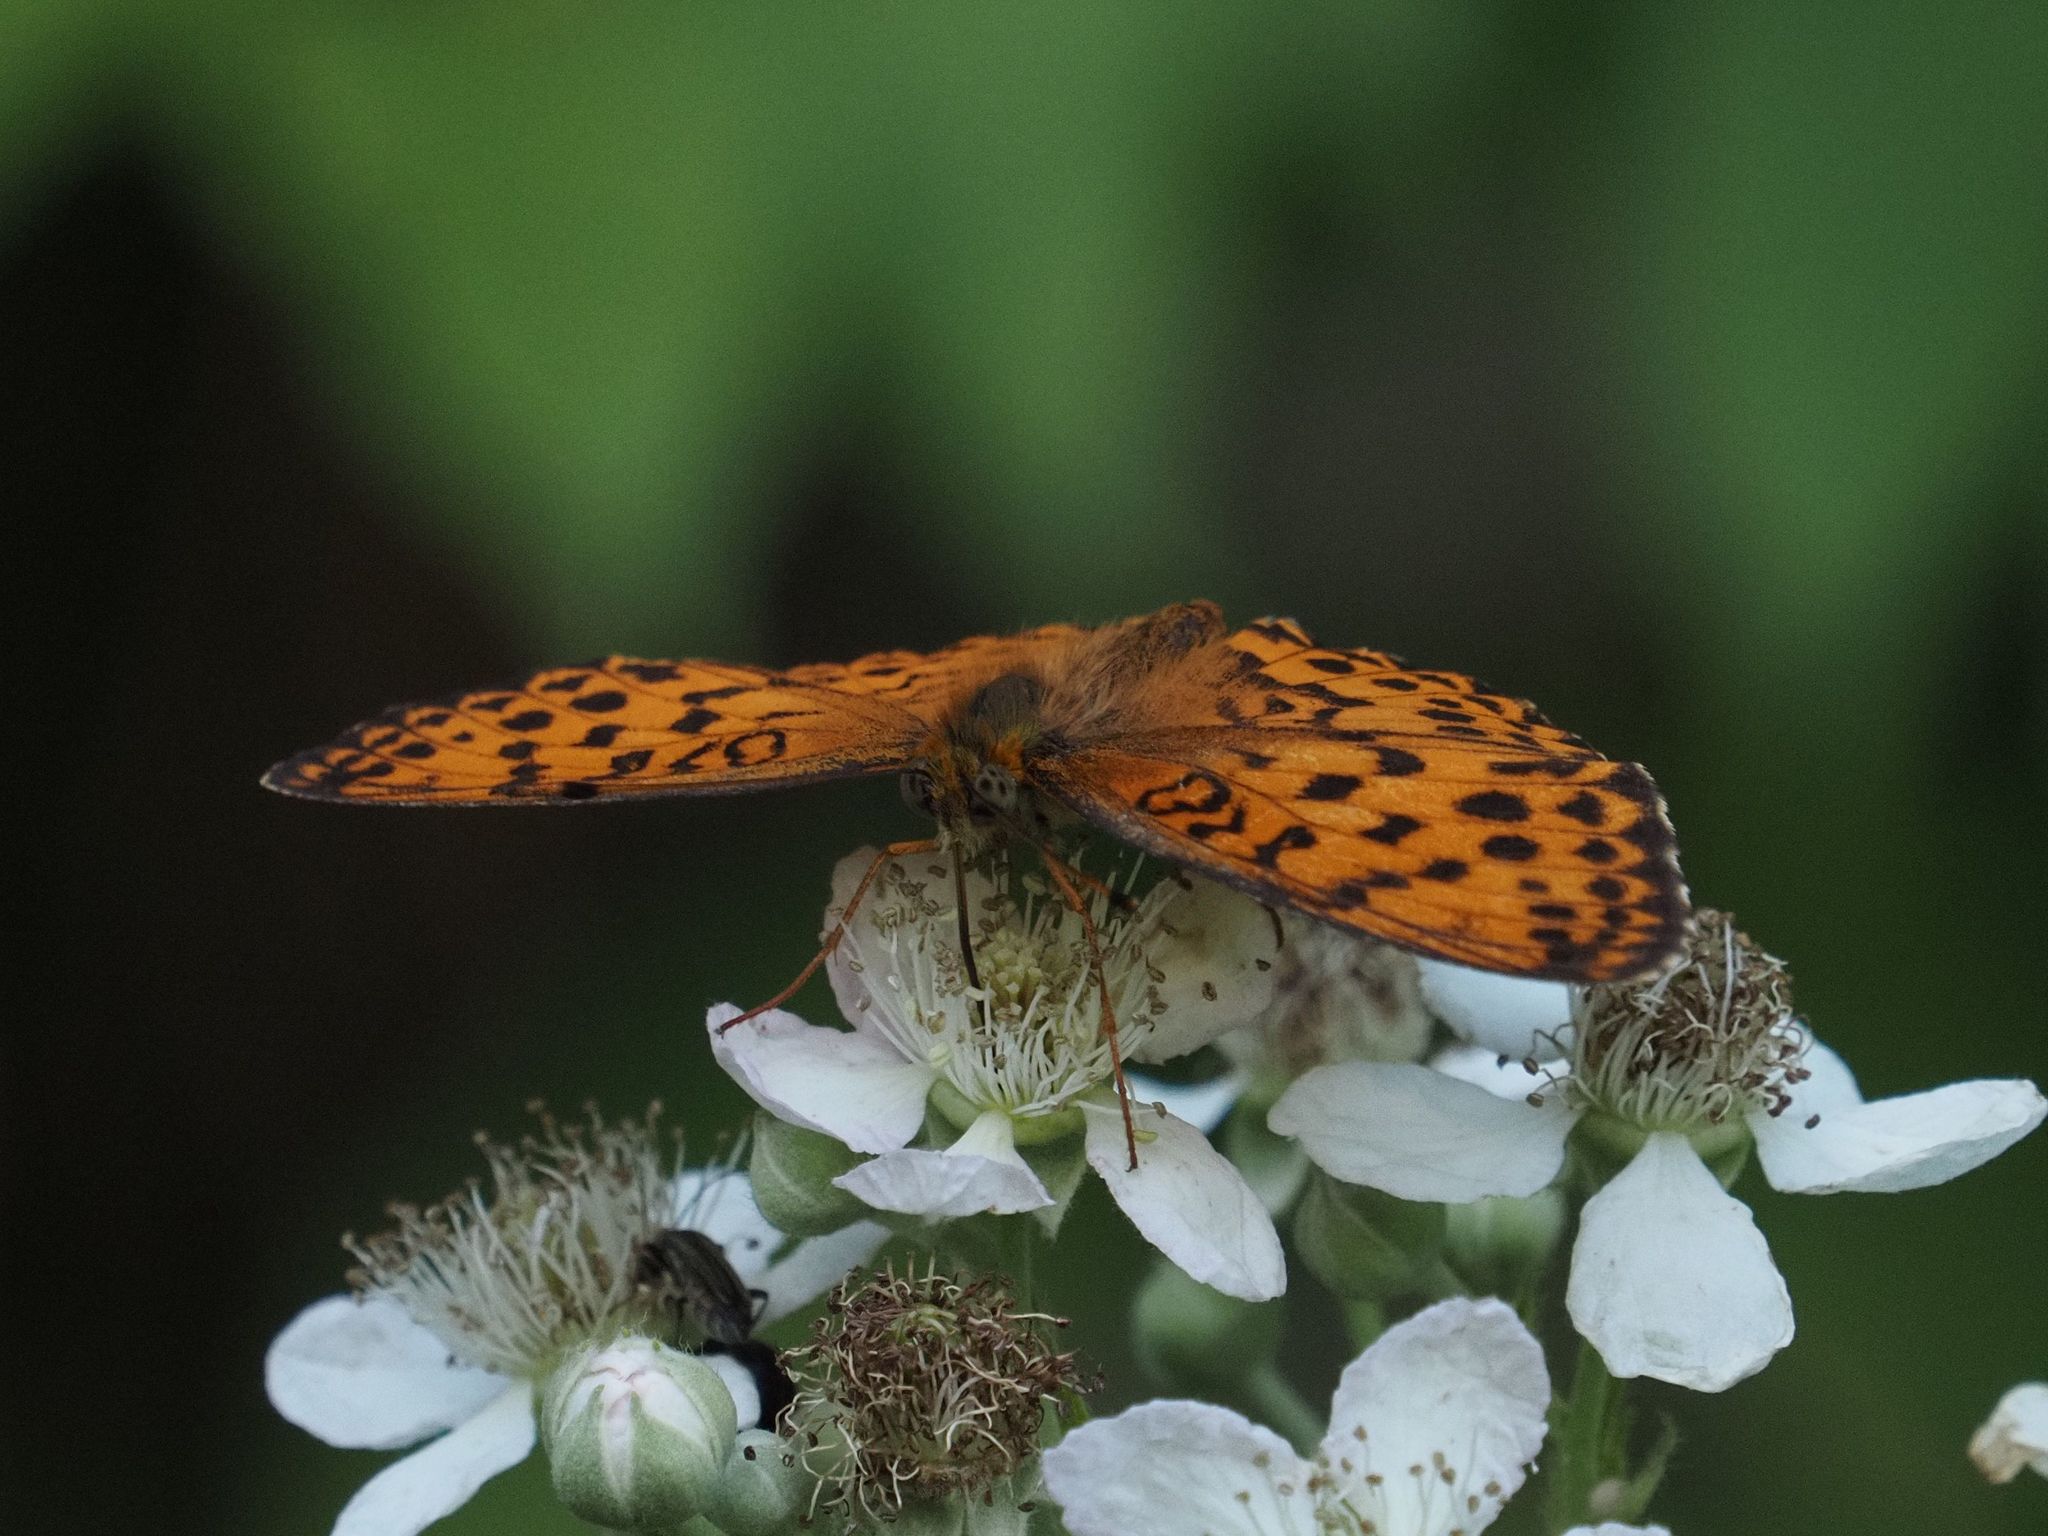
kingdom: Animalia
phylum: Arthropoda
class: Insecta
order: Lepidoptera
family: Nymphalidae
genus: Brenthis
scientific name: Brenthis daphne
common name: Marbled fritillary
